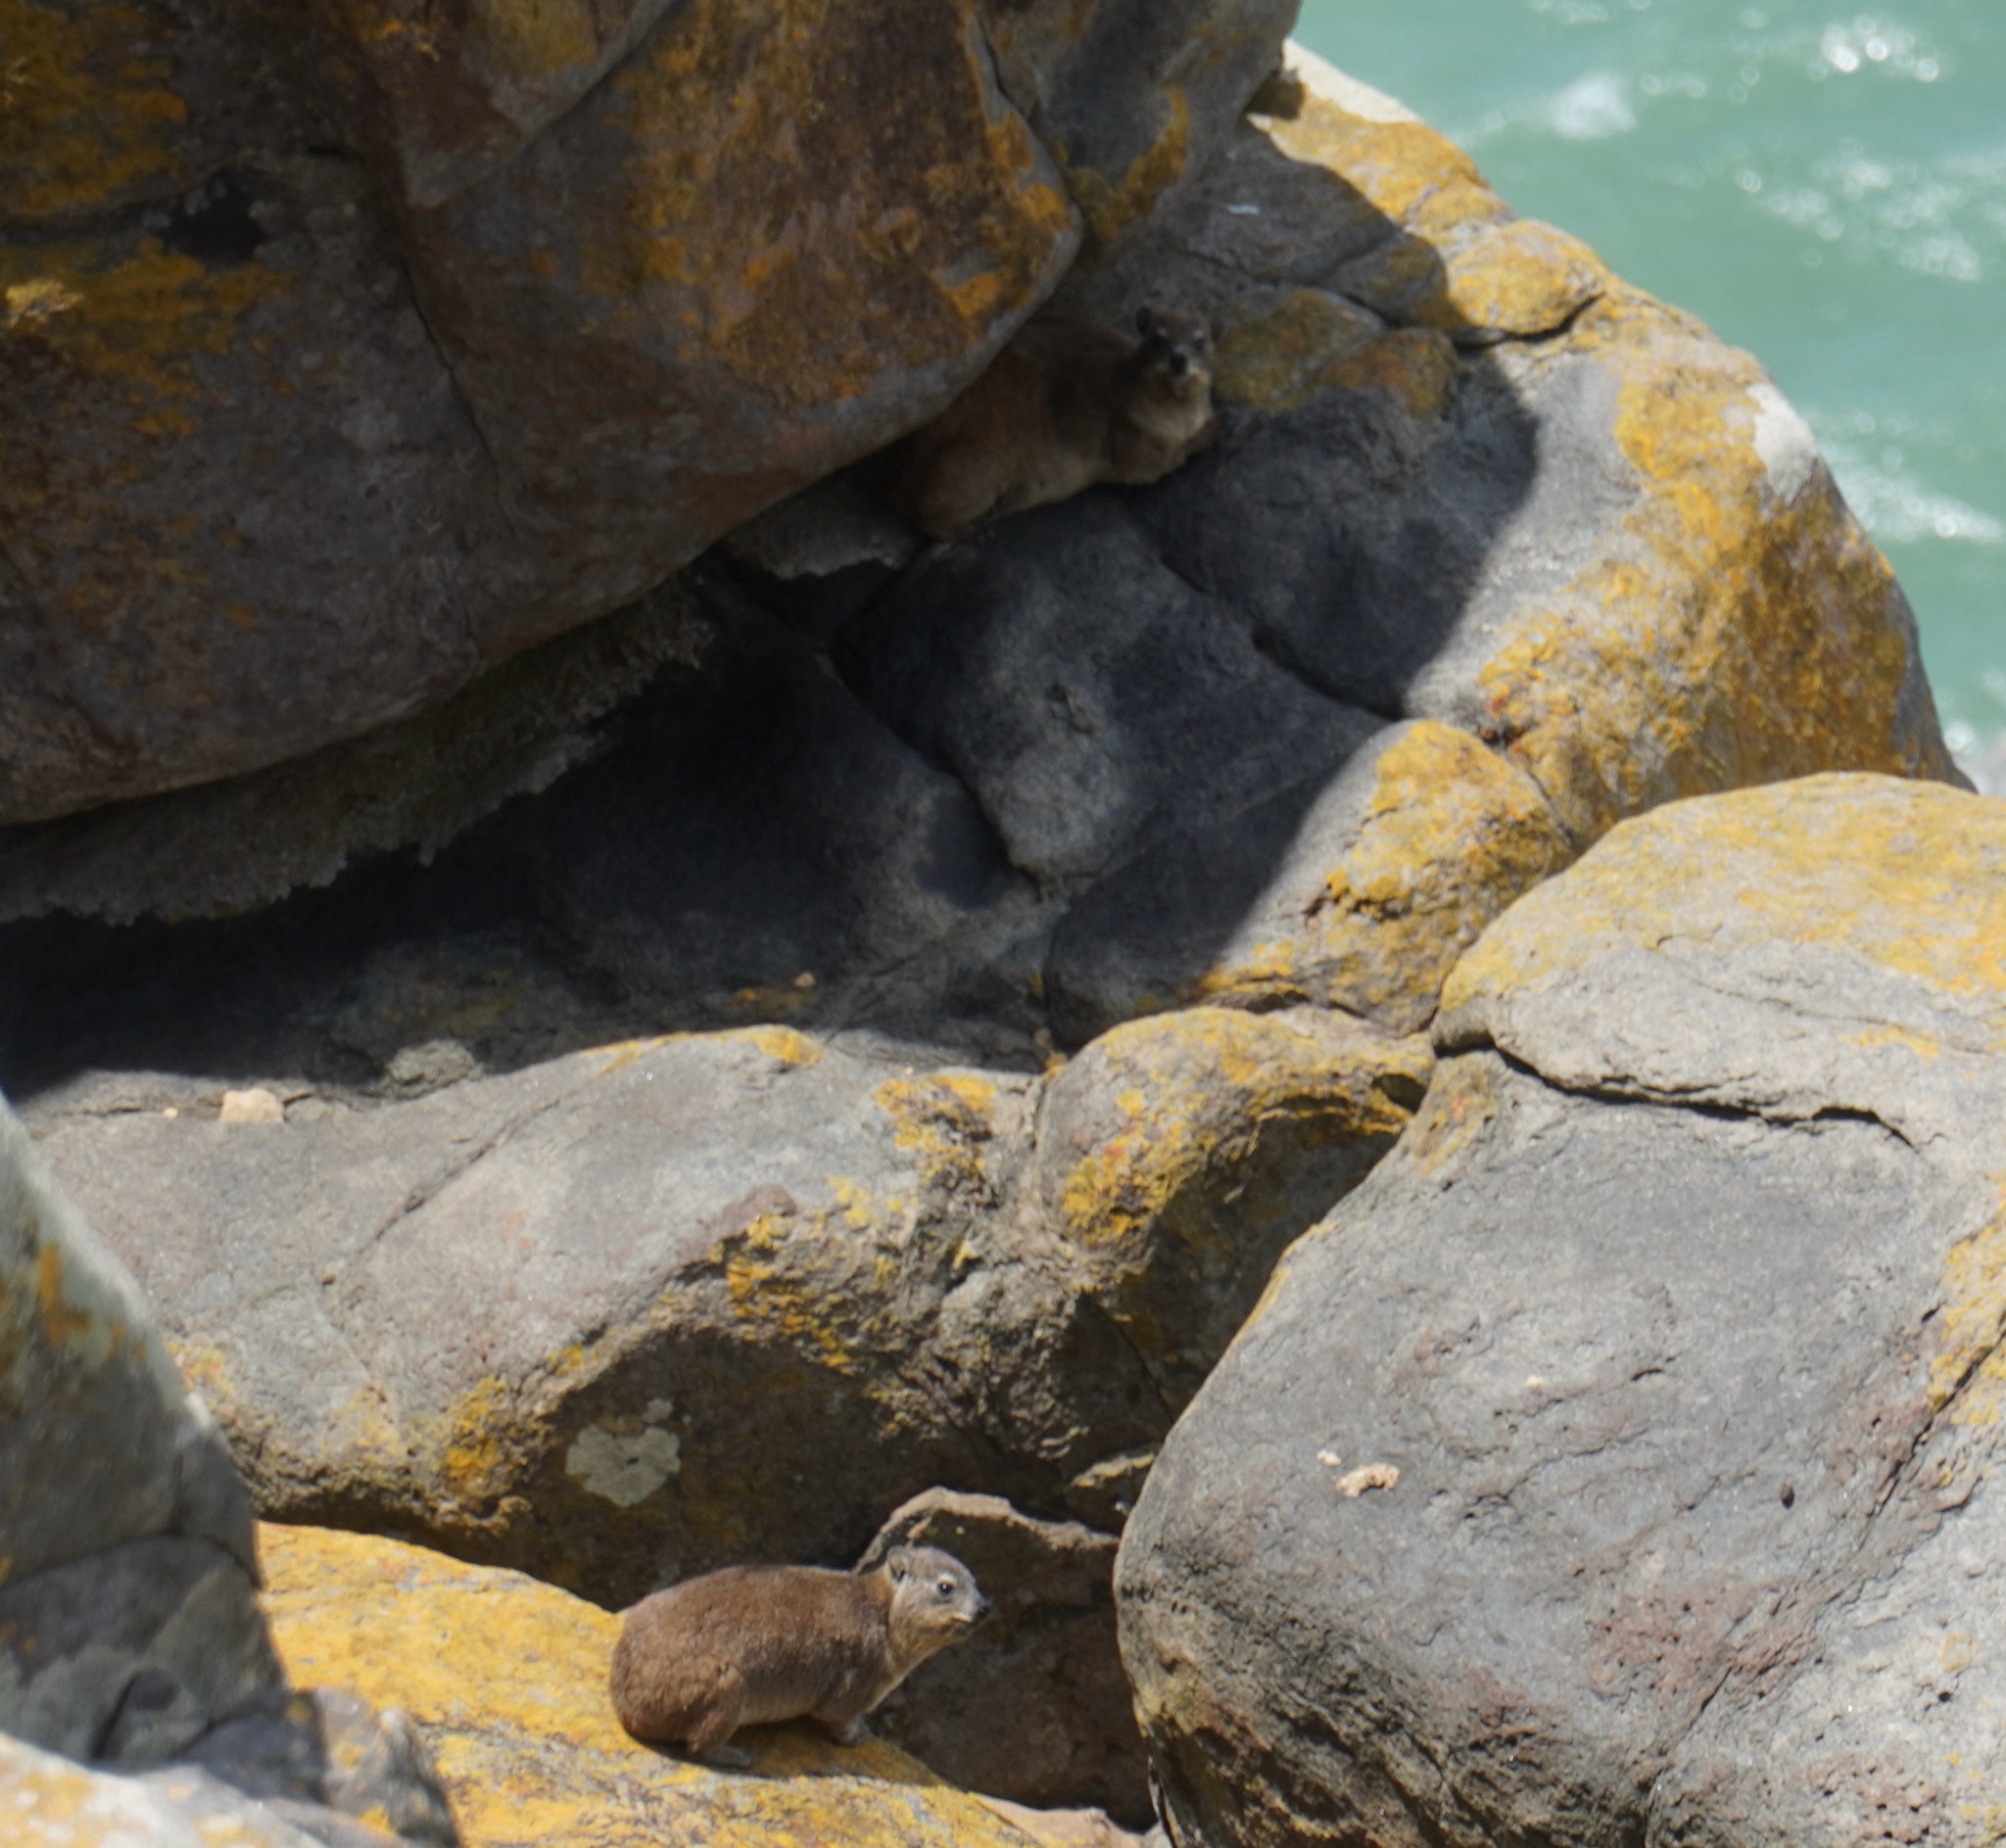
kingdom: Animalia
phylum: Chordata
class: Mammalia
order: Hyracoidea
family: Procaviidae
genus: Procavia
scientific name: Procavia capensis
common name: Rock hyrax
